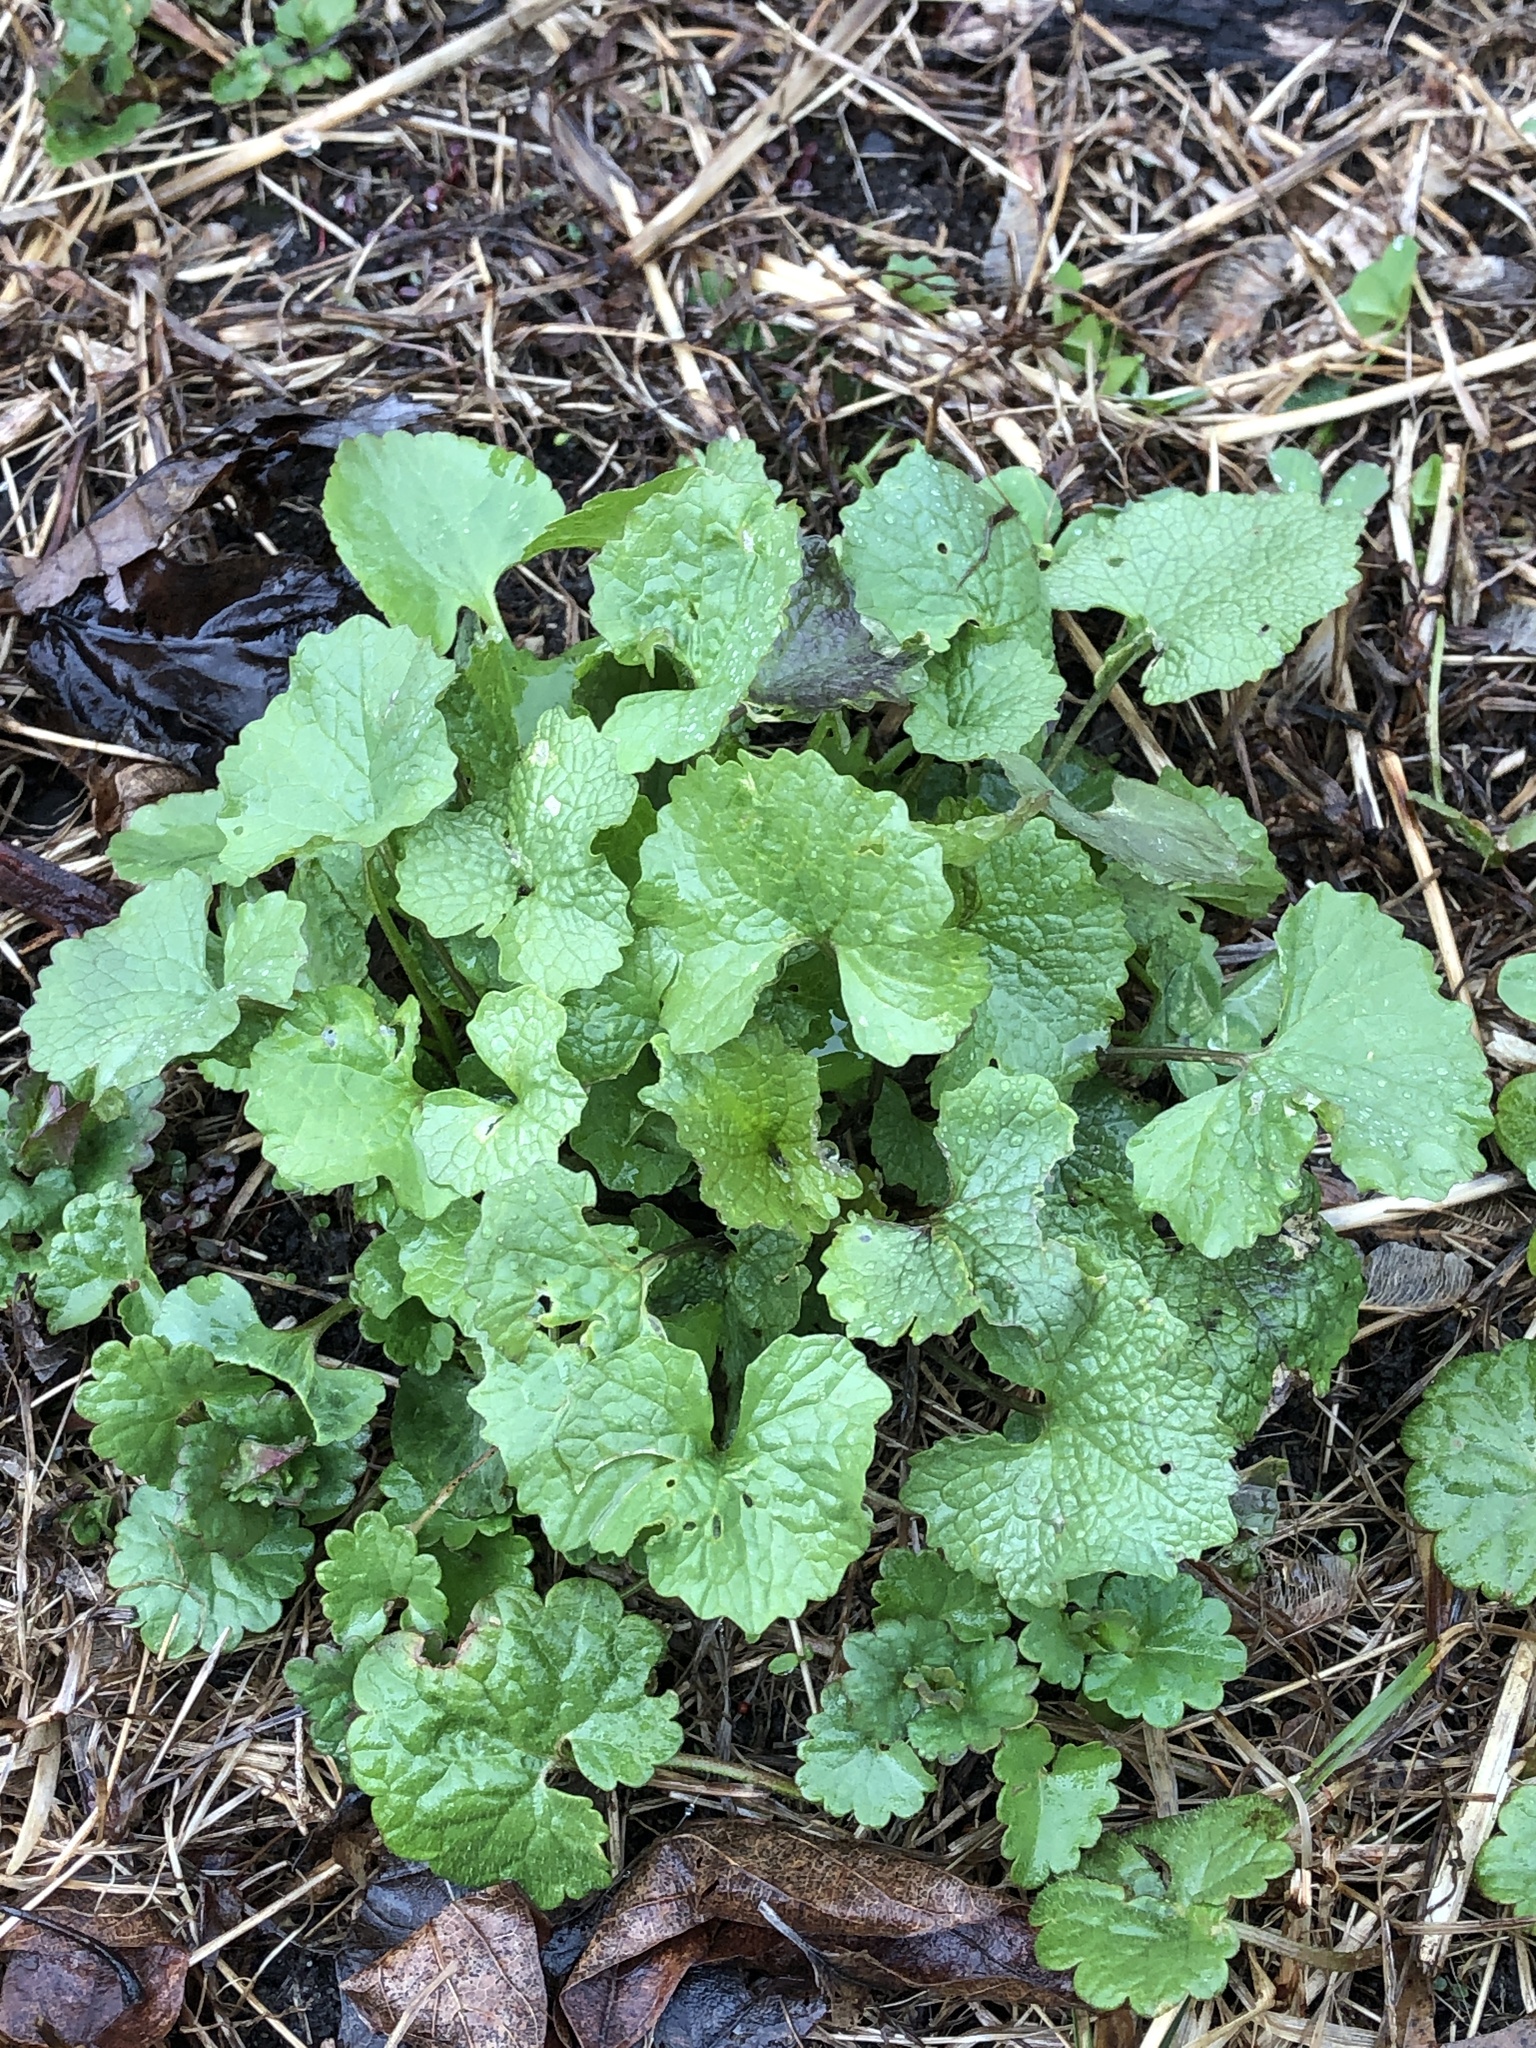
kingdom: Plantae
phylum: Tracheophyta
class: Magnoliopsida
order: Brassicales
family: Brassicaceae
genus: Alliaria
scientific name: Alliaria petiolata
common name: Garlic mustard
